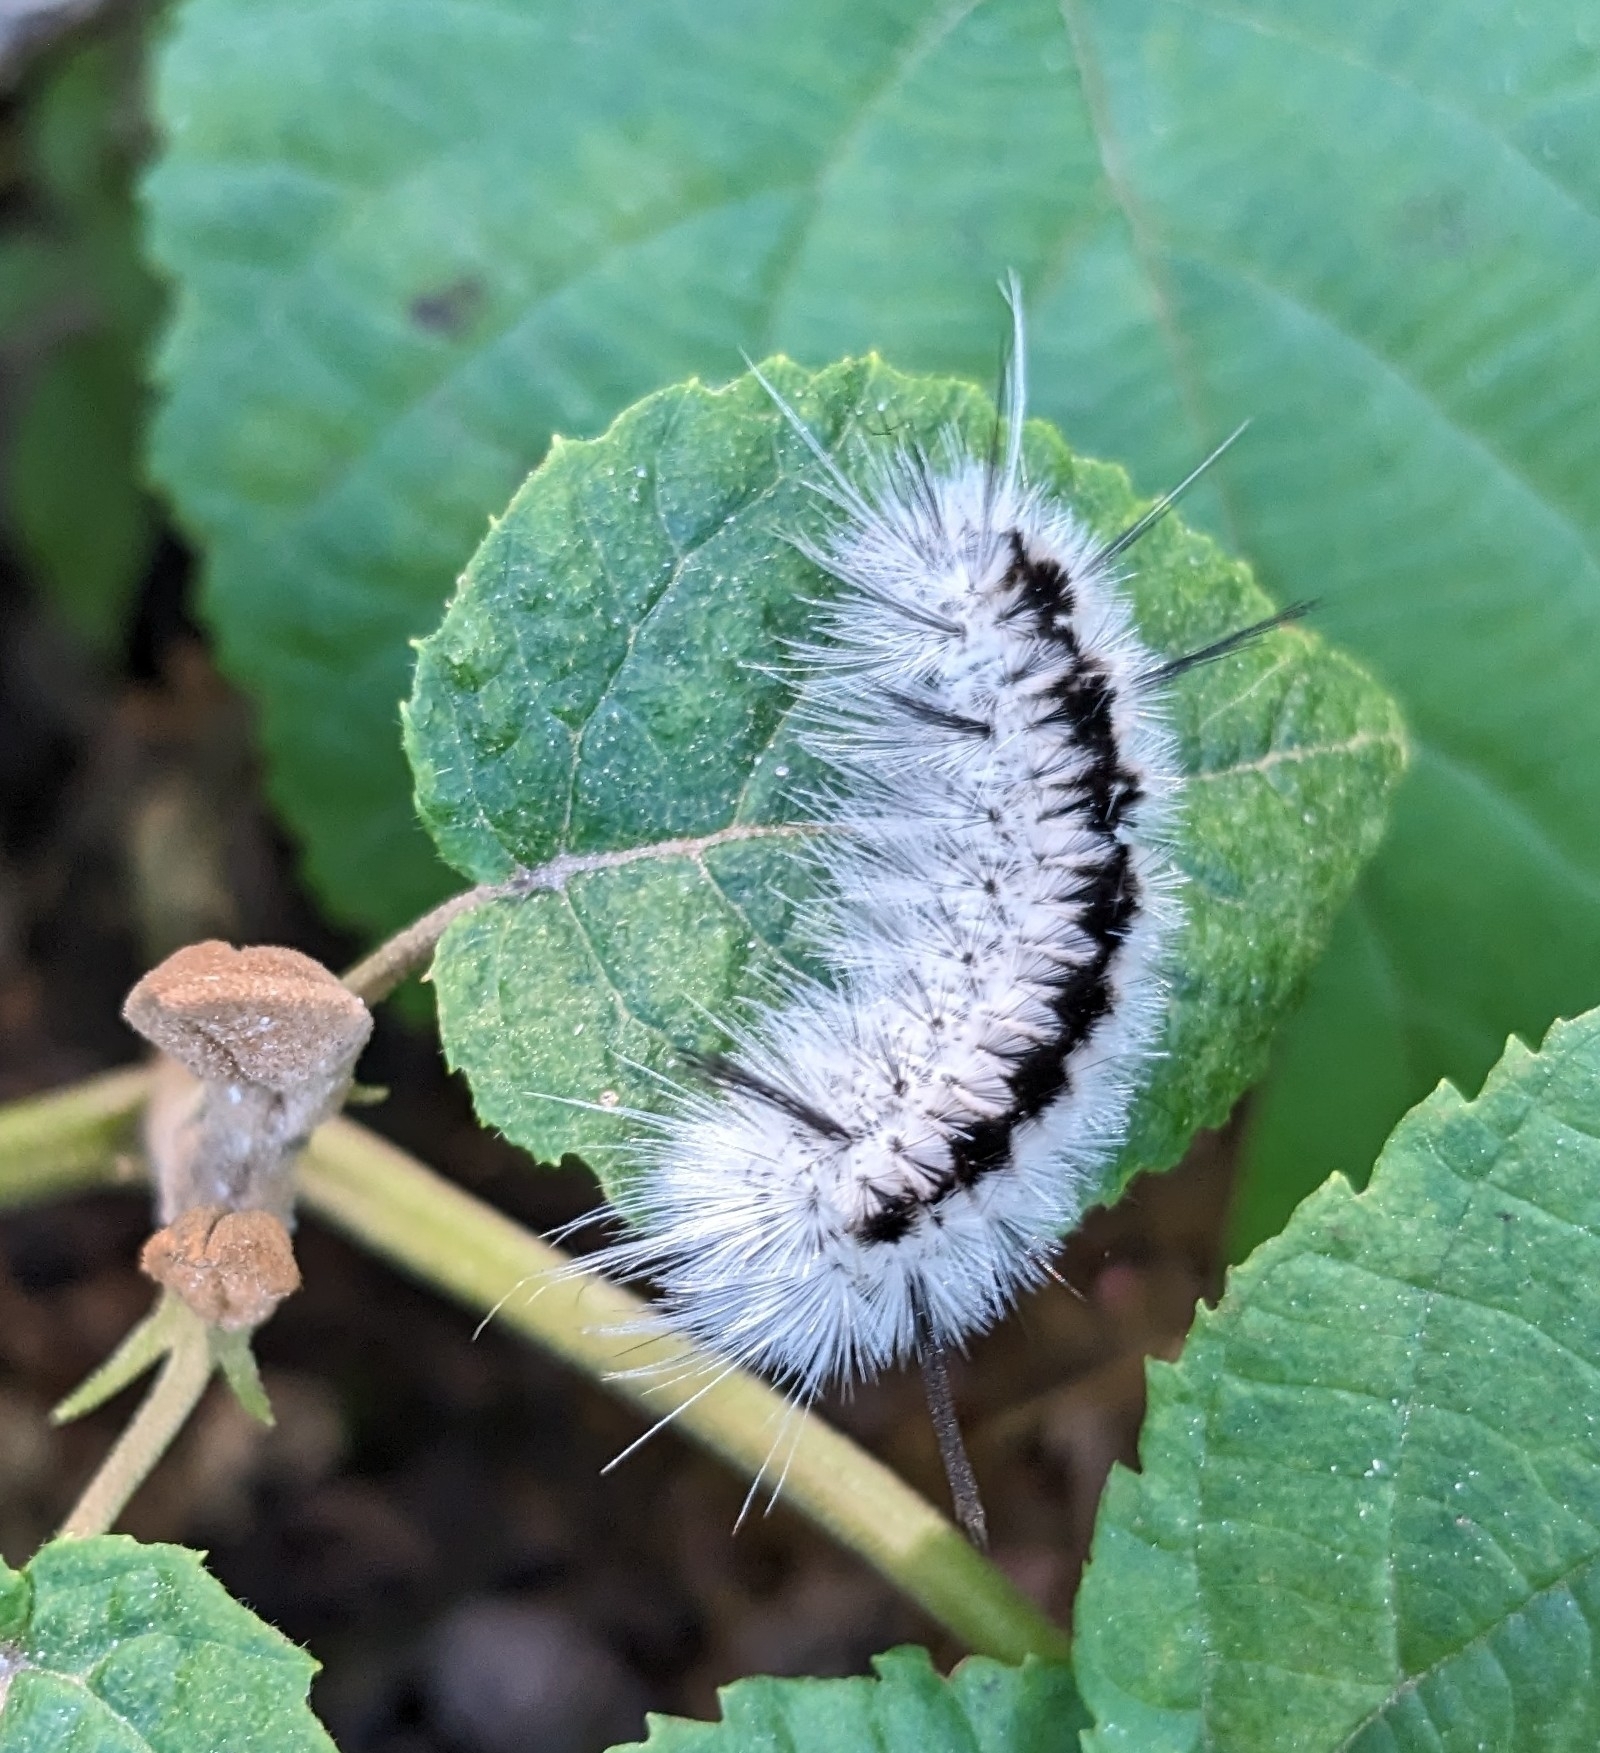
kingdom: Animalia
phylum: Arthropoda
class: Insecta
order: Lepidoptera
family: Erebidae
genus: Lophocampa
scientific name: Lophocampa caryae
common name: Hickory tussock moth
